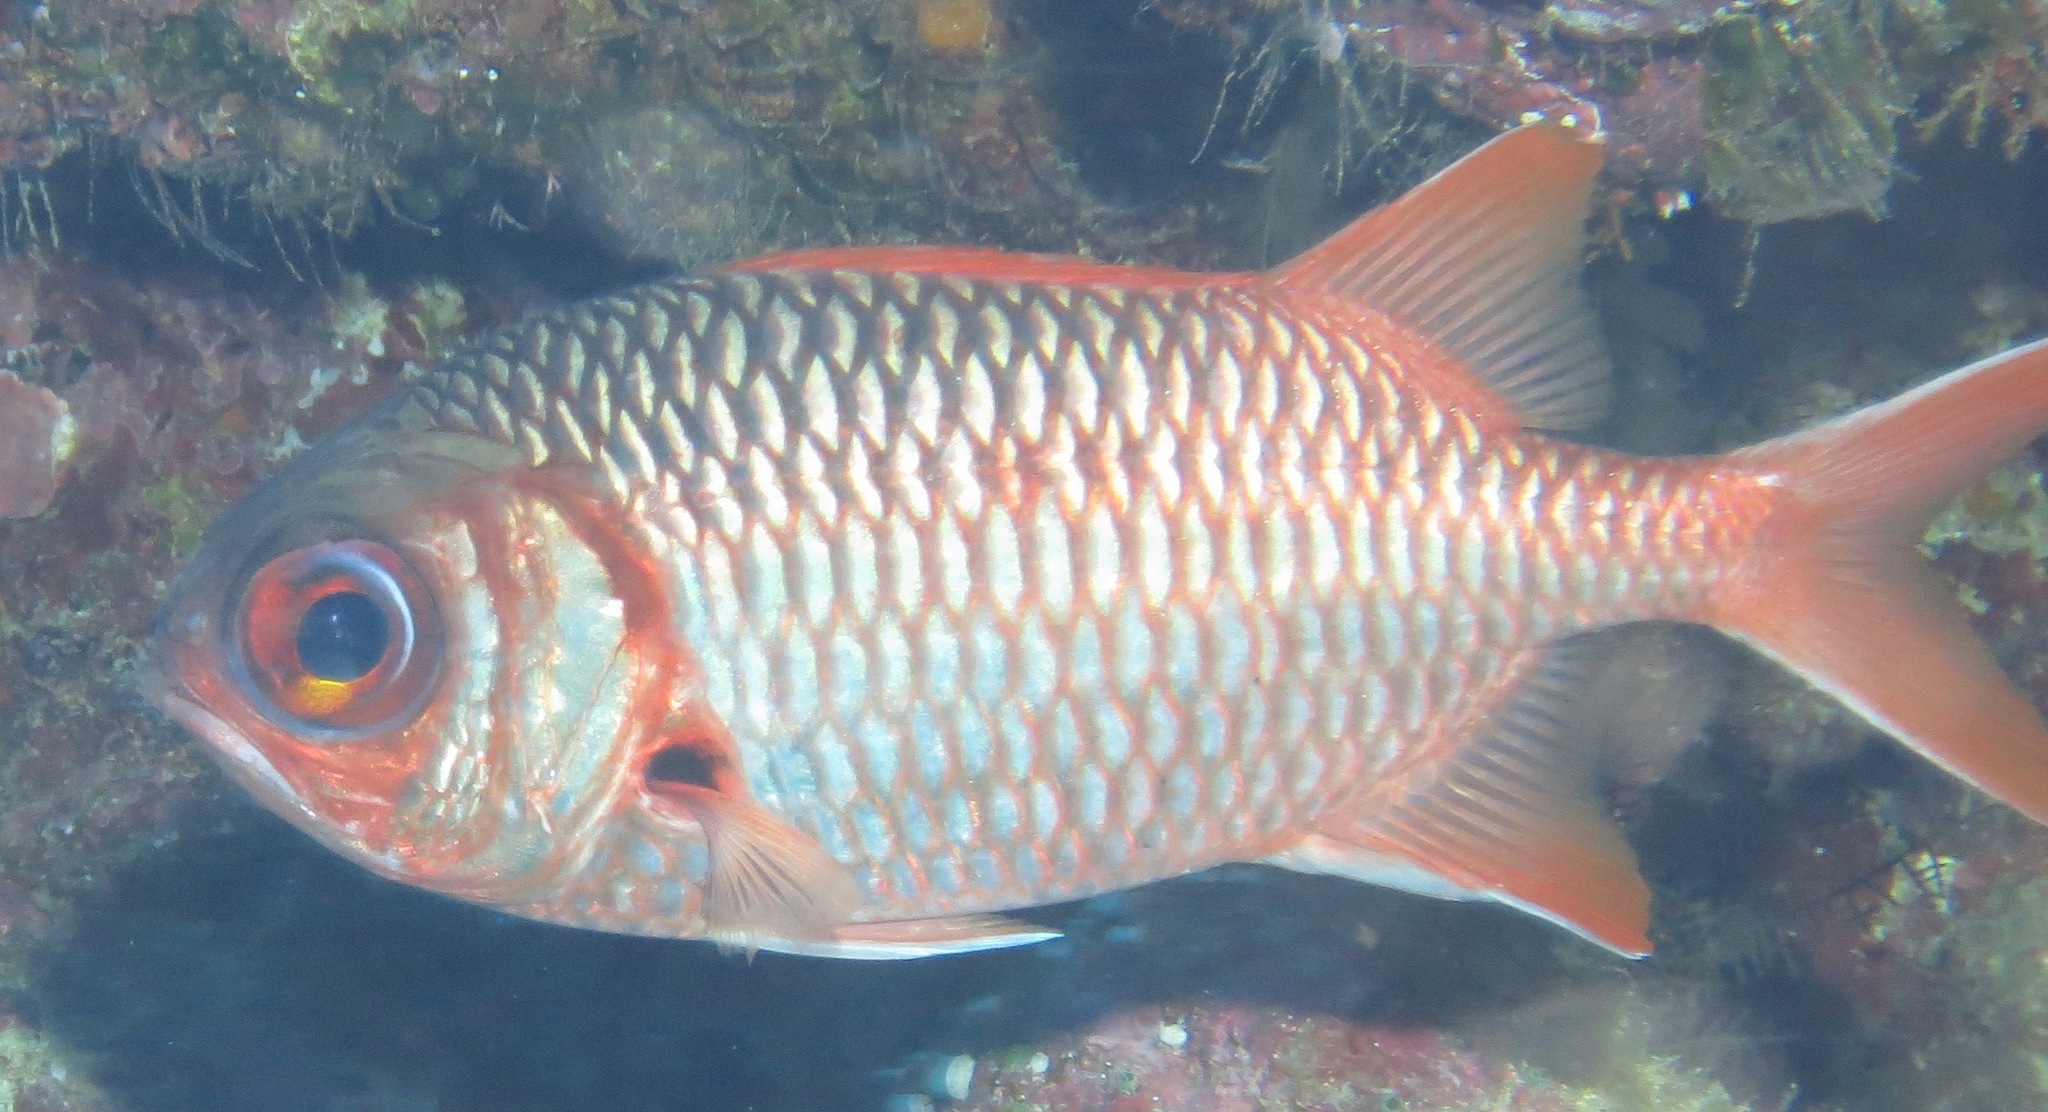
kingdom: Animalia
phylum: Chordata
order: Beryciformes
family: Holocentridae
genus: Myripristis
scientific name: Myripristis violacea
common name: Lattice soldierfish
